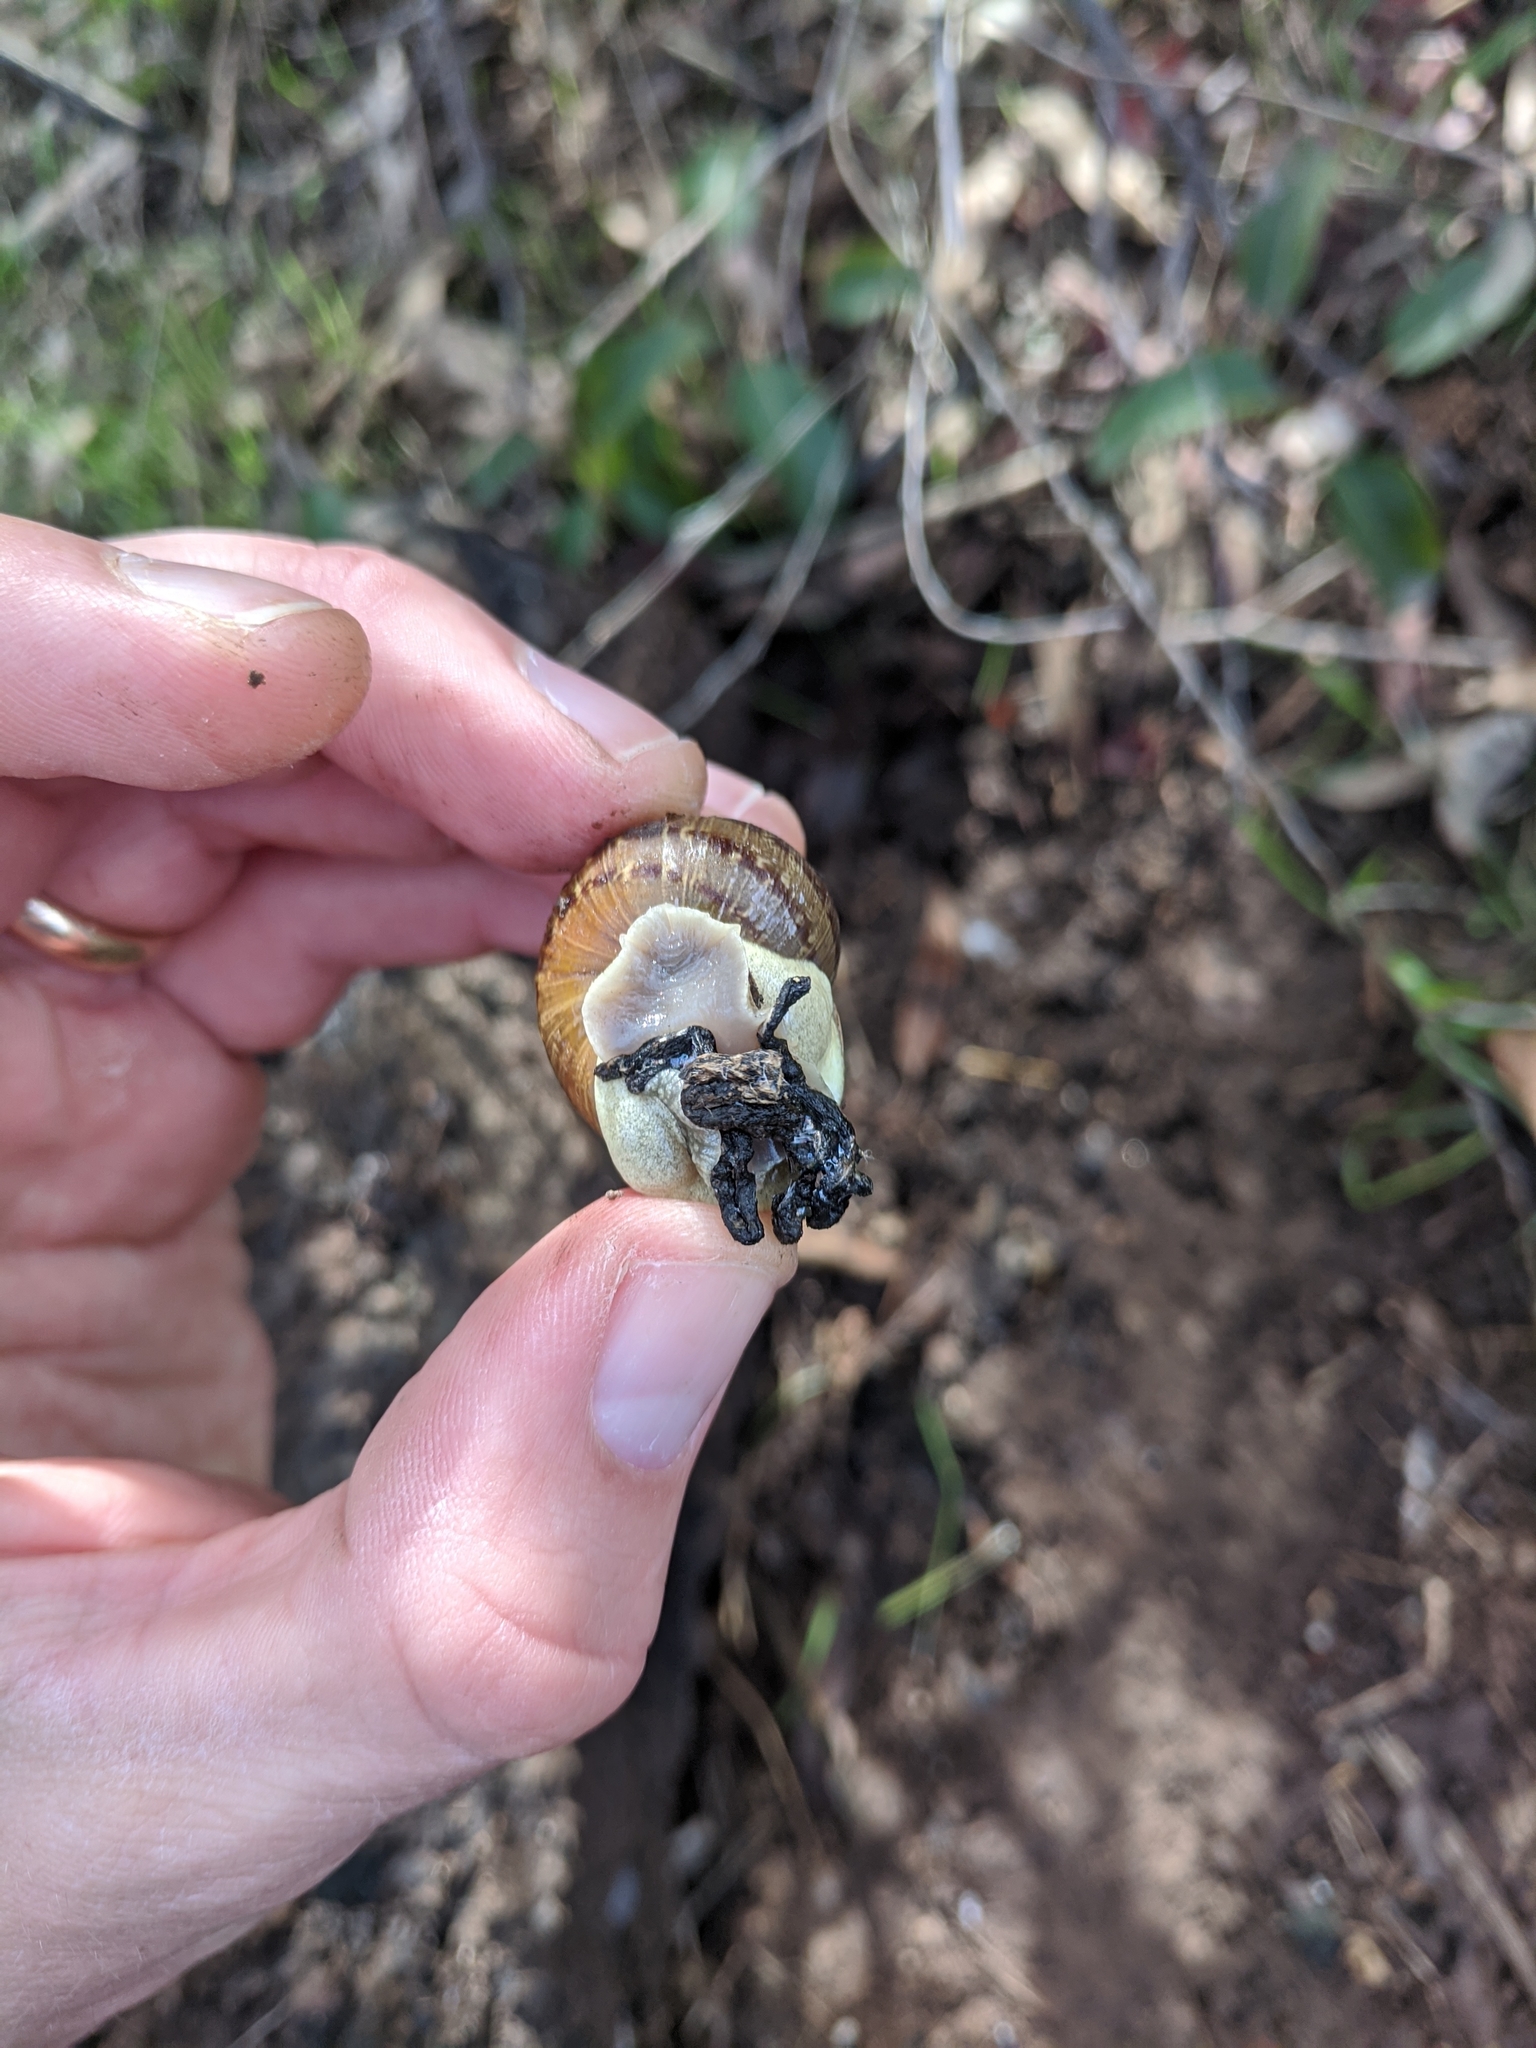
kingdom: Animalia
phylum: Mollusca
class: Gastropoda
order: Stylommatophora
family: Helicidae
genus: Cornu
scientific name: Cornu aspersum
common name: Brown garden snail
